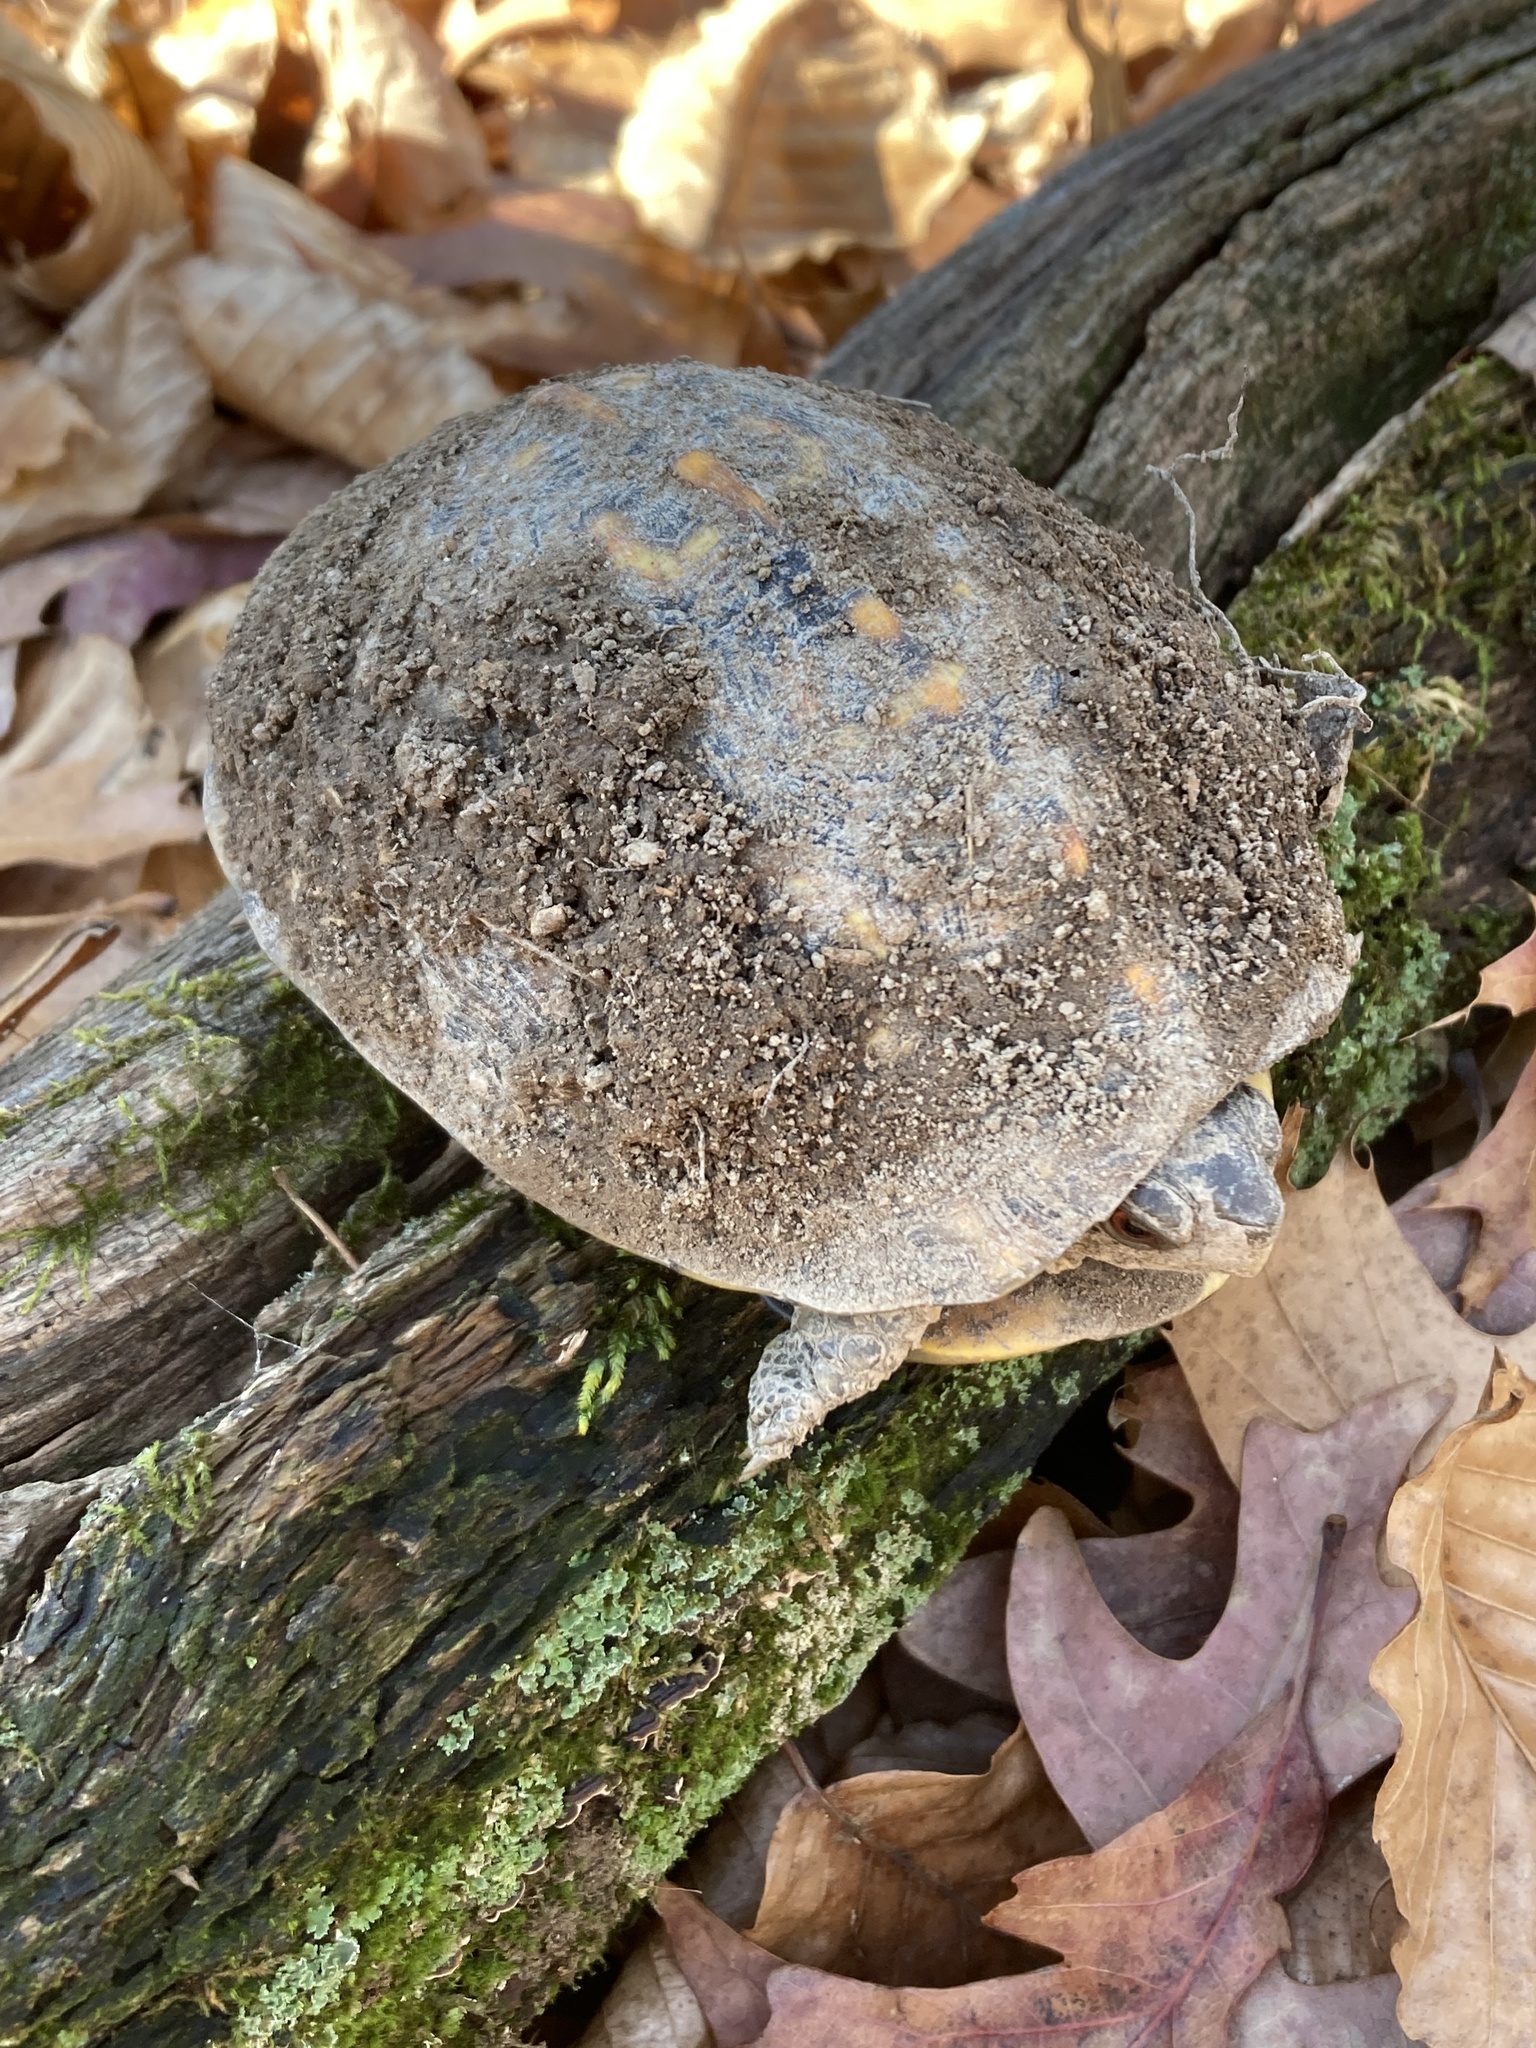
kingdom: Animalia
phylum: Chordata
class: Testudines
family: Emydidae
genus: Terrapene
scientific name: Terrapene carolina
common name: Common box turtle
